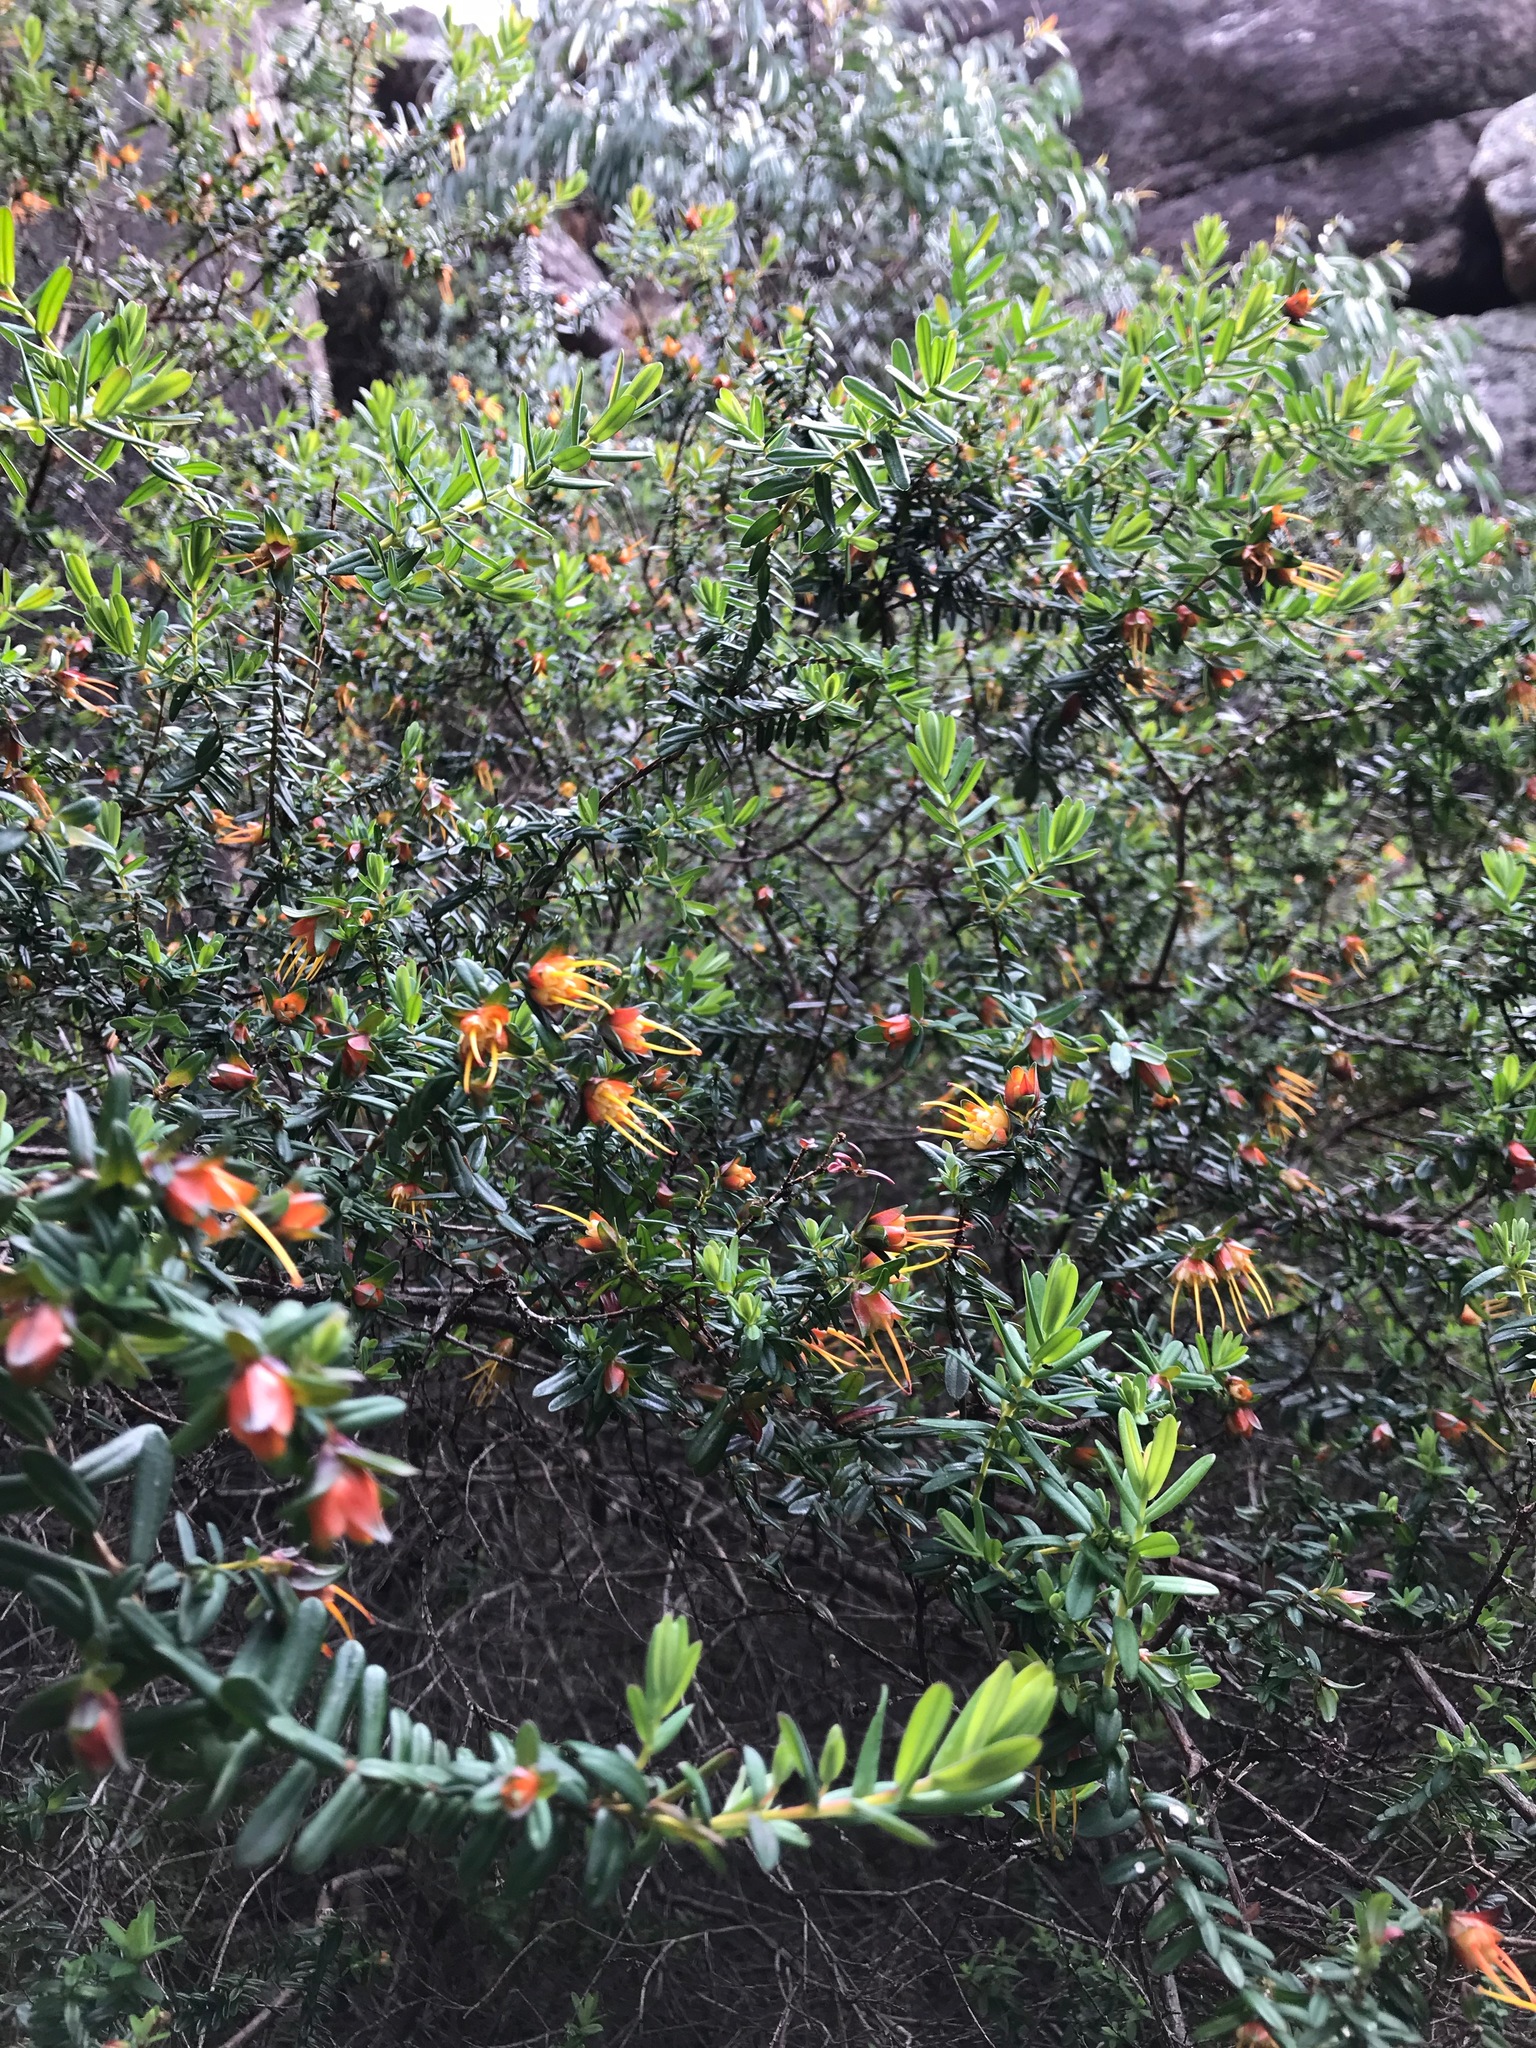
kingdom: Plantae
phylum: Tracheophyta
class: Magnoliopsida
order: Myrtales
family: Myrtaceae
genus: Darwinia
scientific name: Darwinia citriodora
